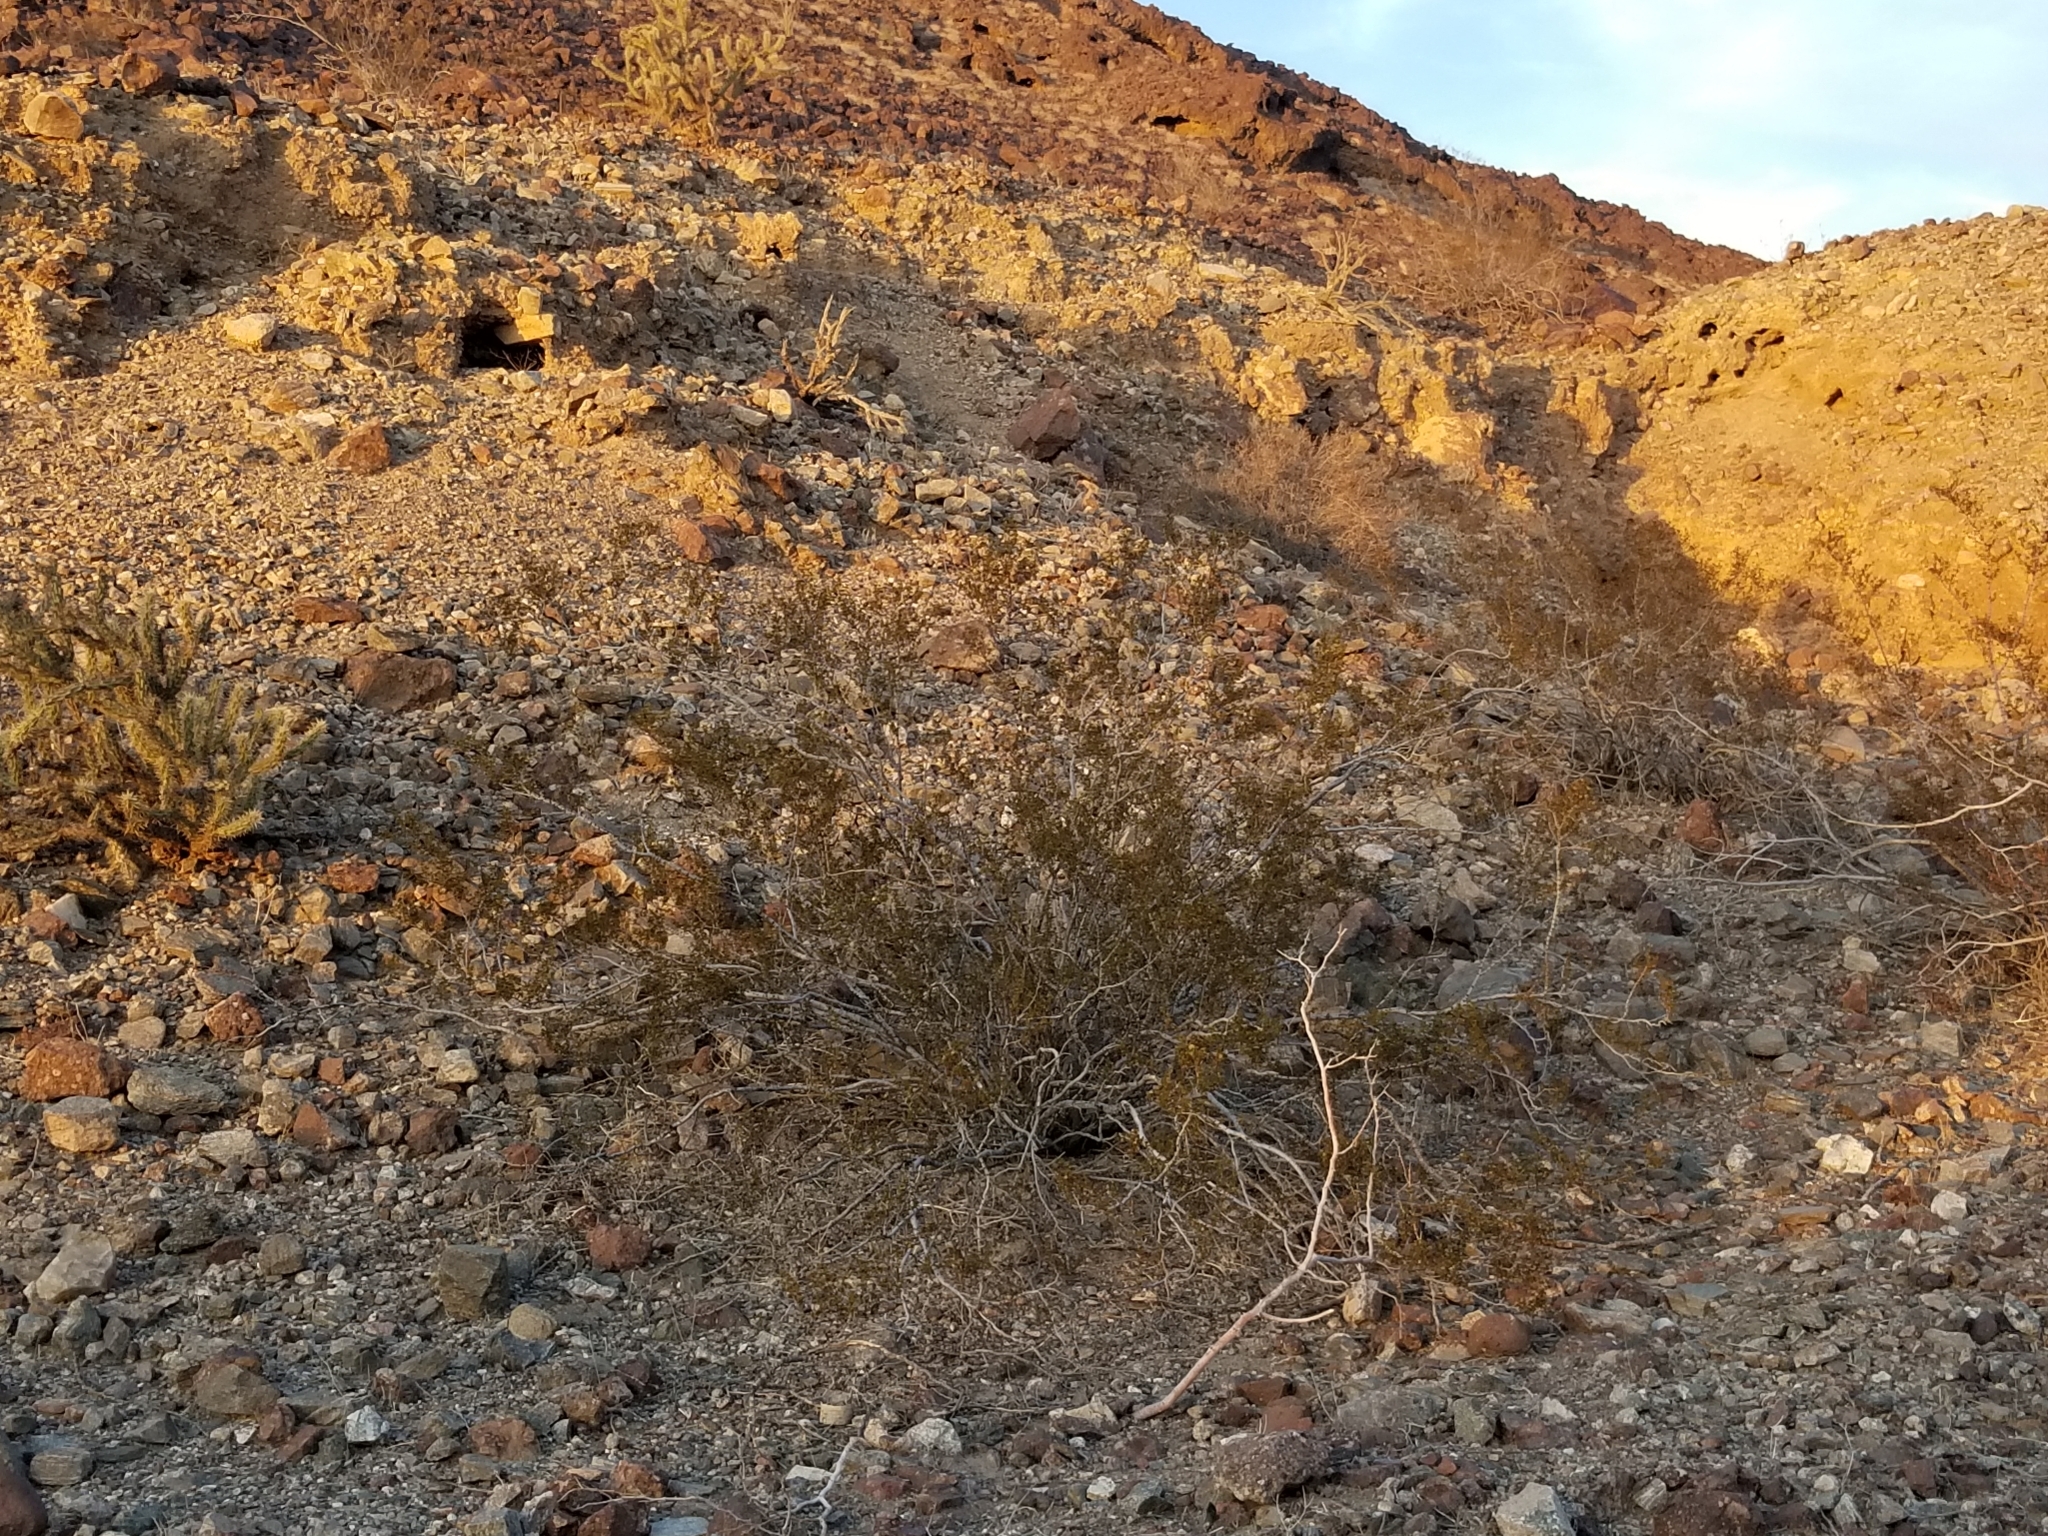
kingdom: Plantae
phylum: Tracheophyta
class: Magnoliopsida
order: Zygophyllales
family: Zygophyllaceae
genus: Larrea
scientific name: Larrea tridentata
